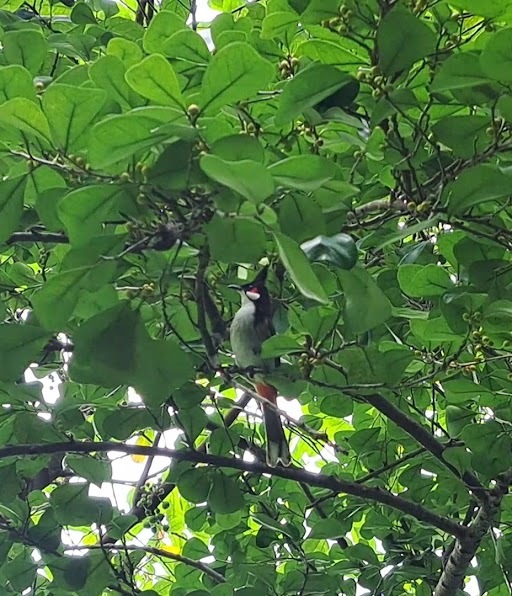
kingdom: Animalia
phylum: Chordata
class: Aves
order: Passeriformes
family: Pycnonotidae
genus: Pycnonotus
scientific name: Pycnonotus jocosus
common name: Red-whiskered bulbul
